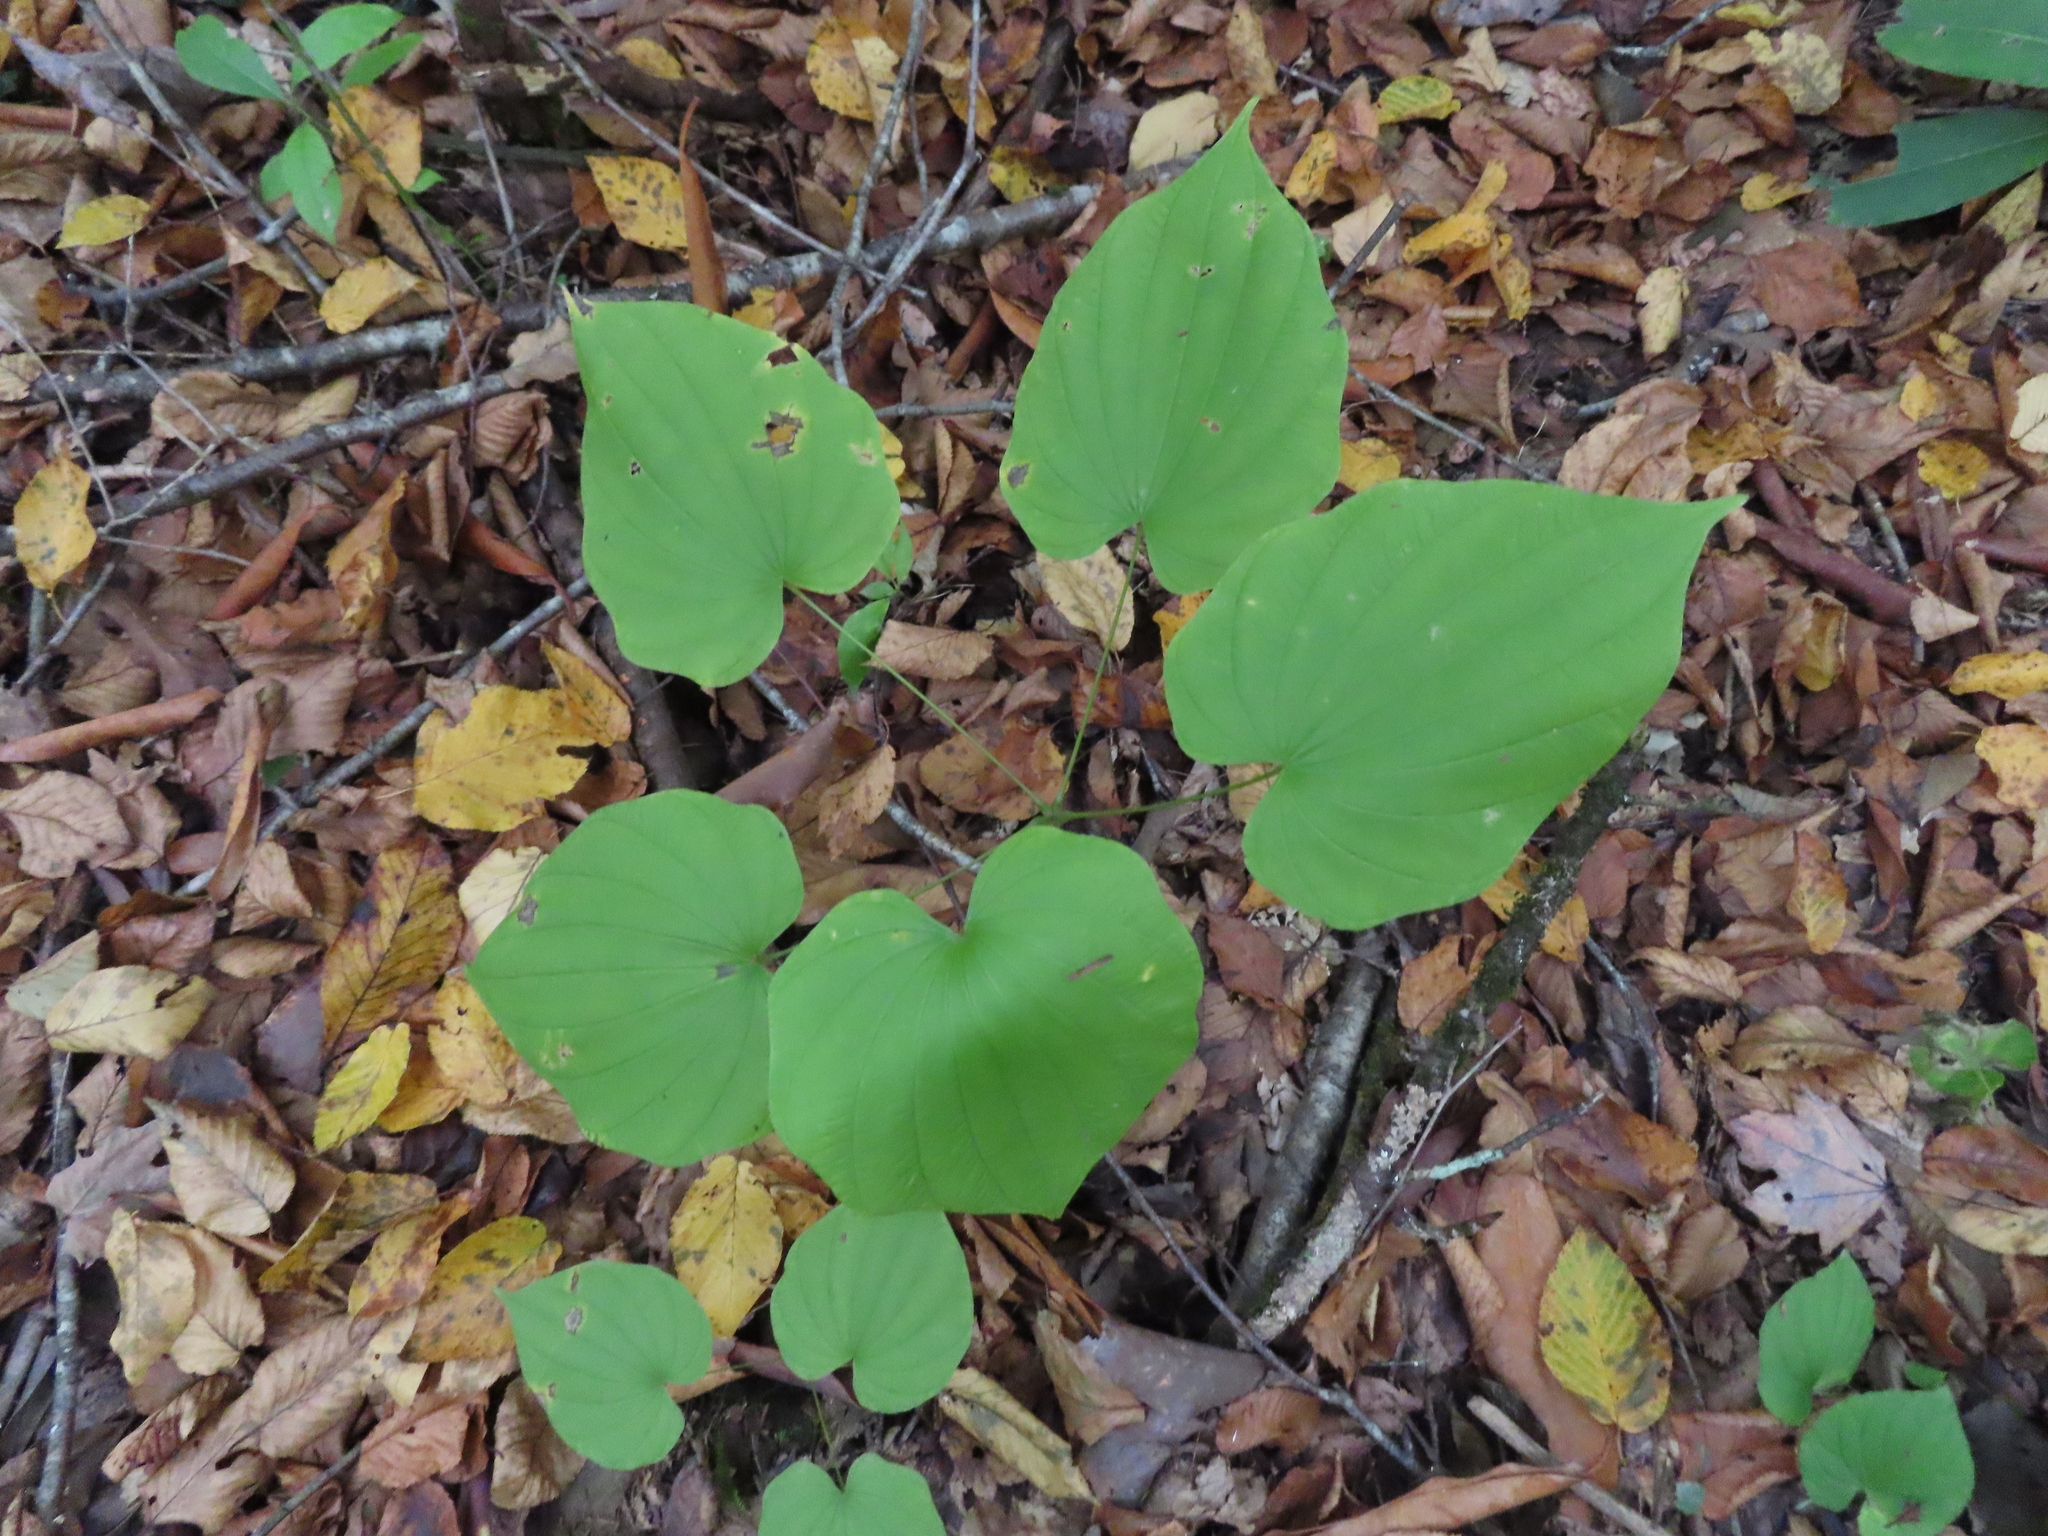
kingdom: Plantae
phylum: Tracheophyta
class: Liliopsida
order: Dioscoreales
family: Dioscoreaceae
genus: Dioscorea
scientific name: Dioscorea villosa
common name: Wild yam
